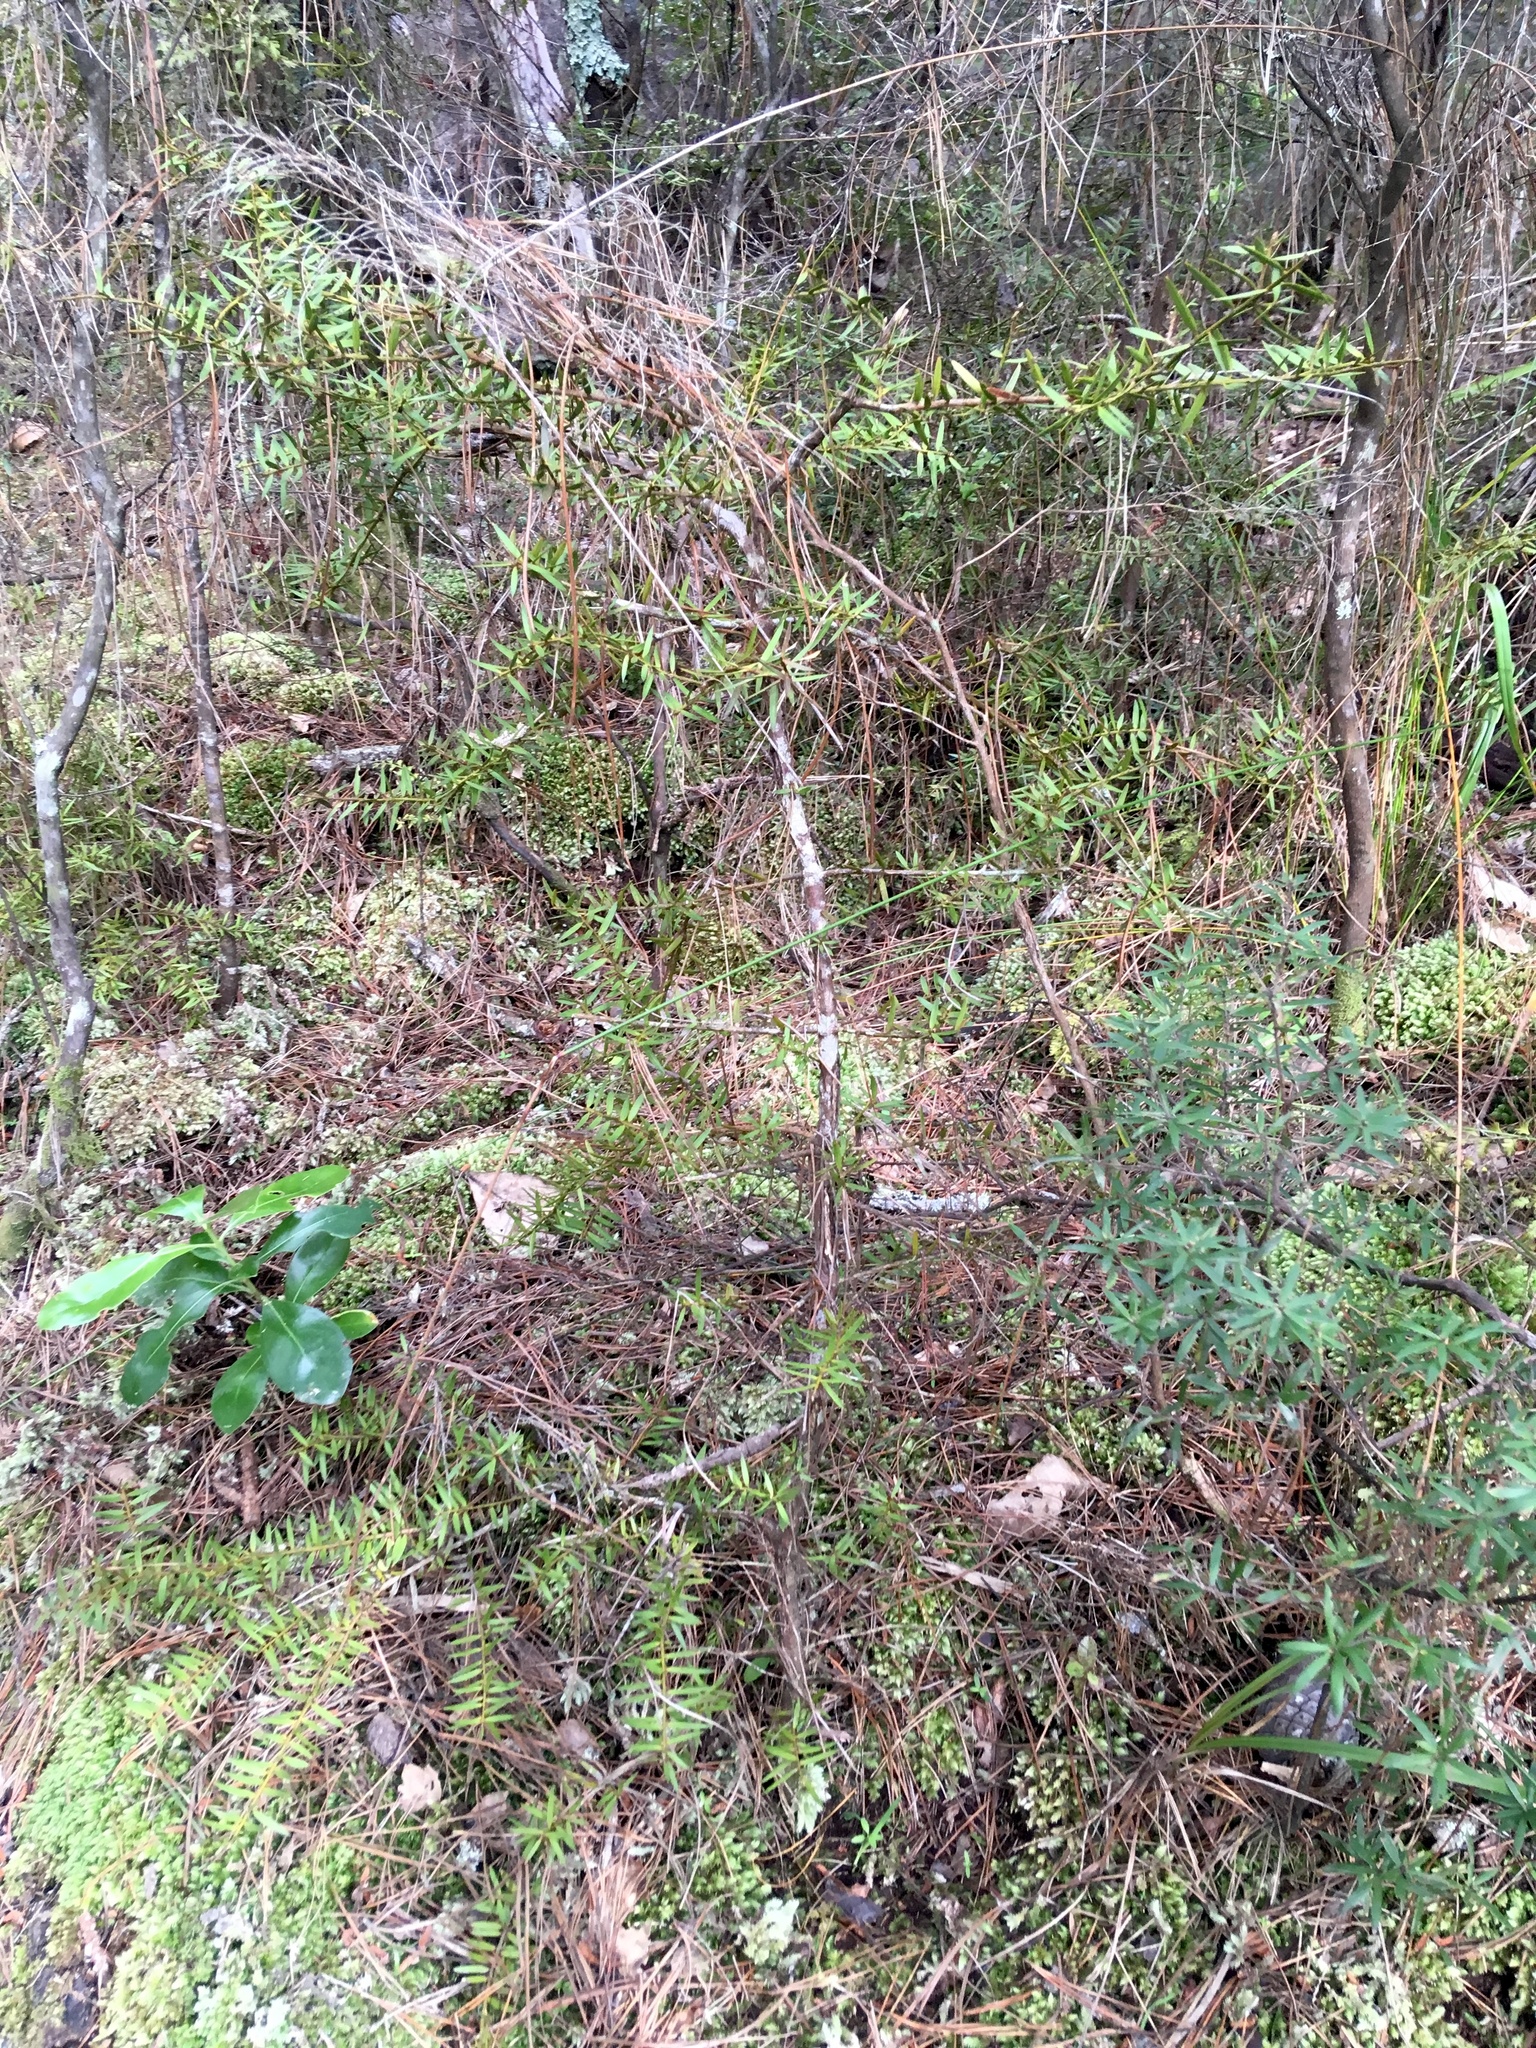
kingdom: Plantae
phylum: Tracheophyta
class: Pinopsida
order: Pinales
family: Podocarpaceae
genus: Podocarpus
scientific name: Podocarpus totara
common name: Totara
